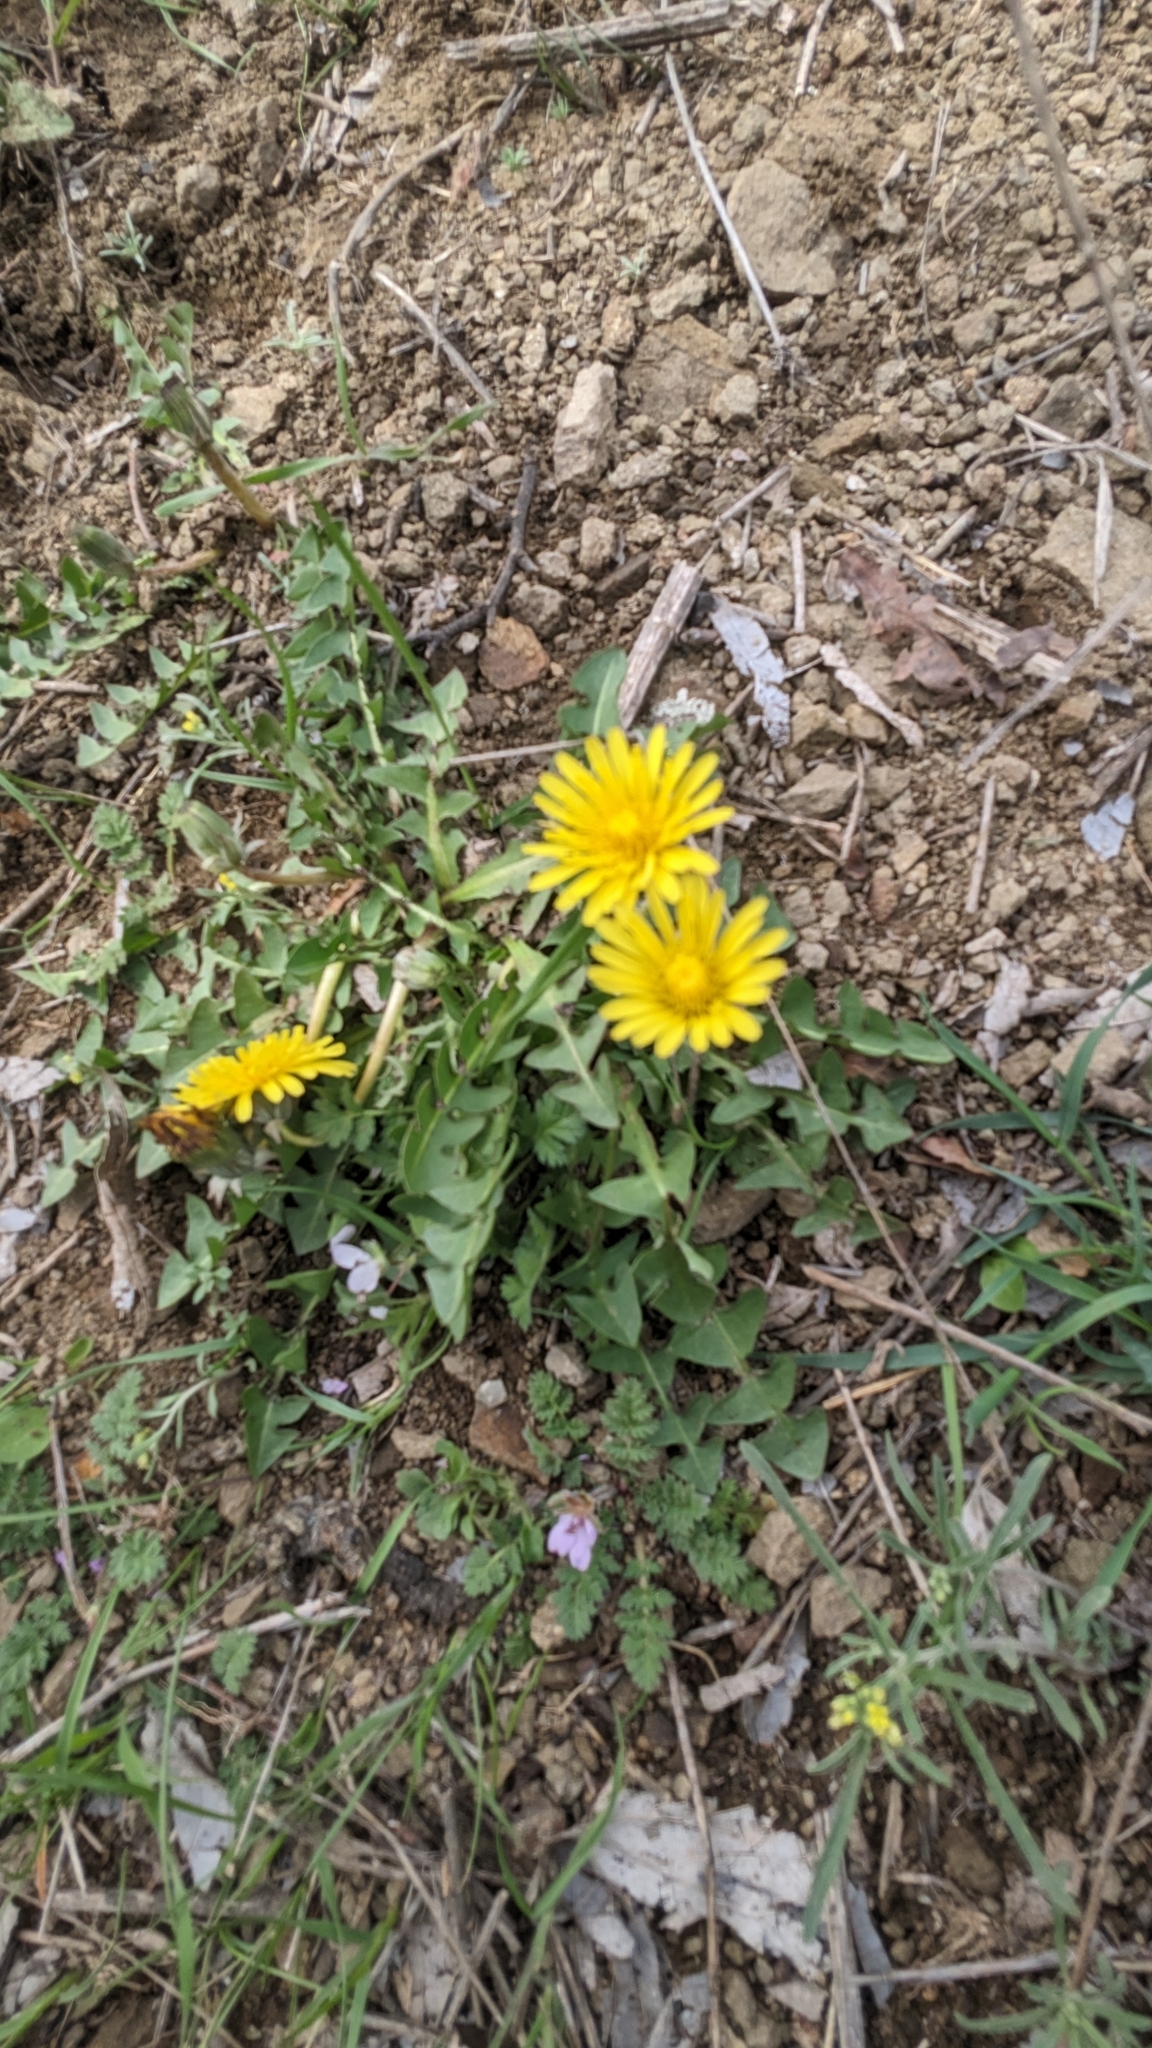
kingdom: Plantae
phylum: Tracheophyta
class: Magnoliopsida
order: Asterales
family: Asteraceae
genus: Taraxacum
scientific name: Taraxacum officinale
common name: Common dandelion
